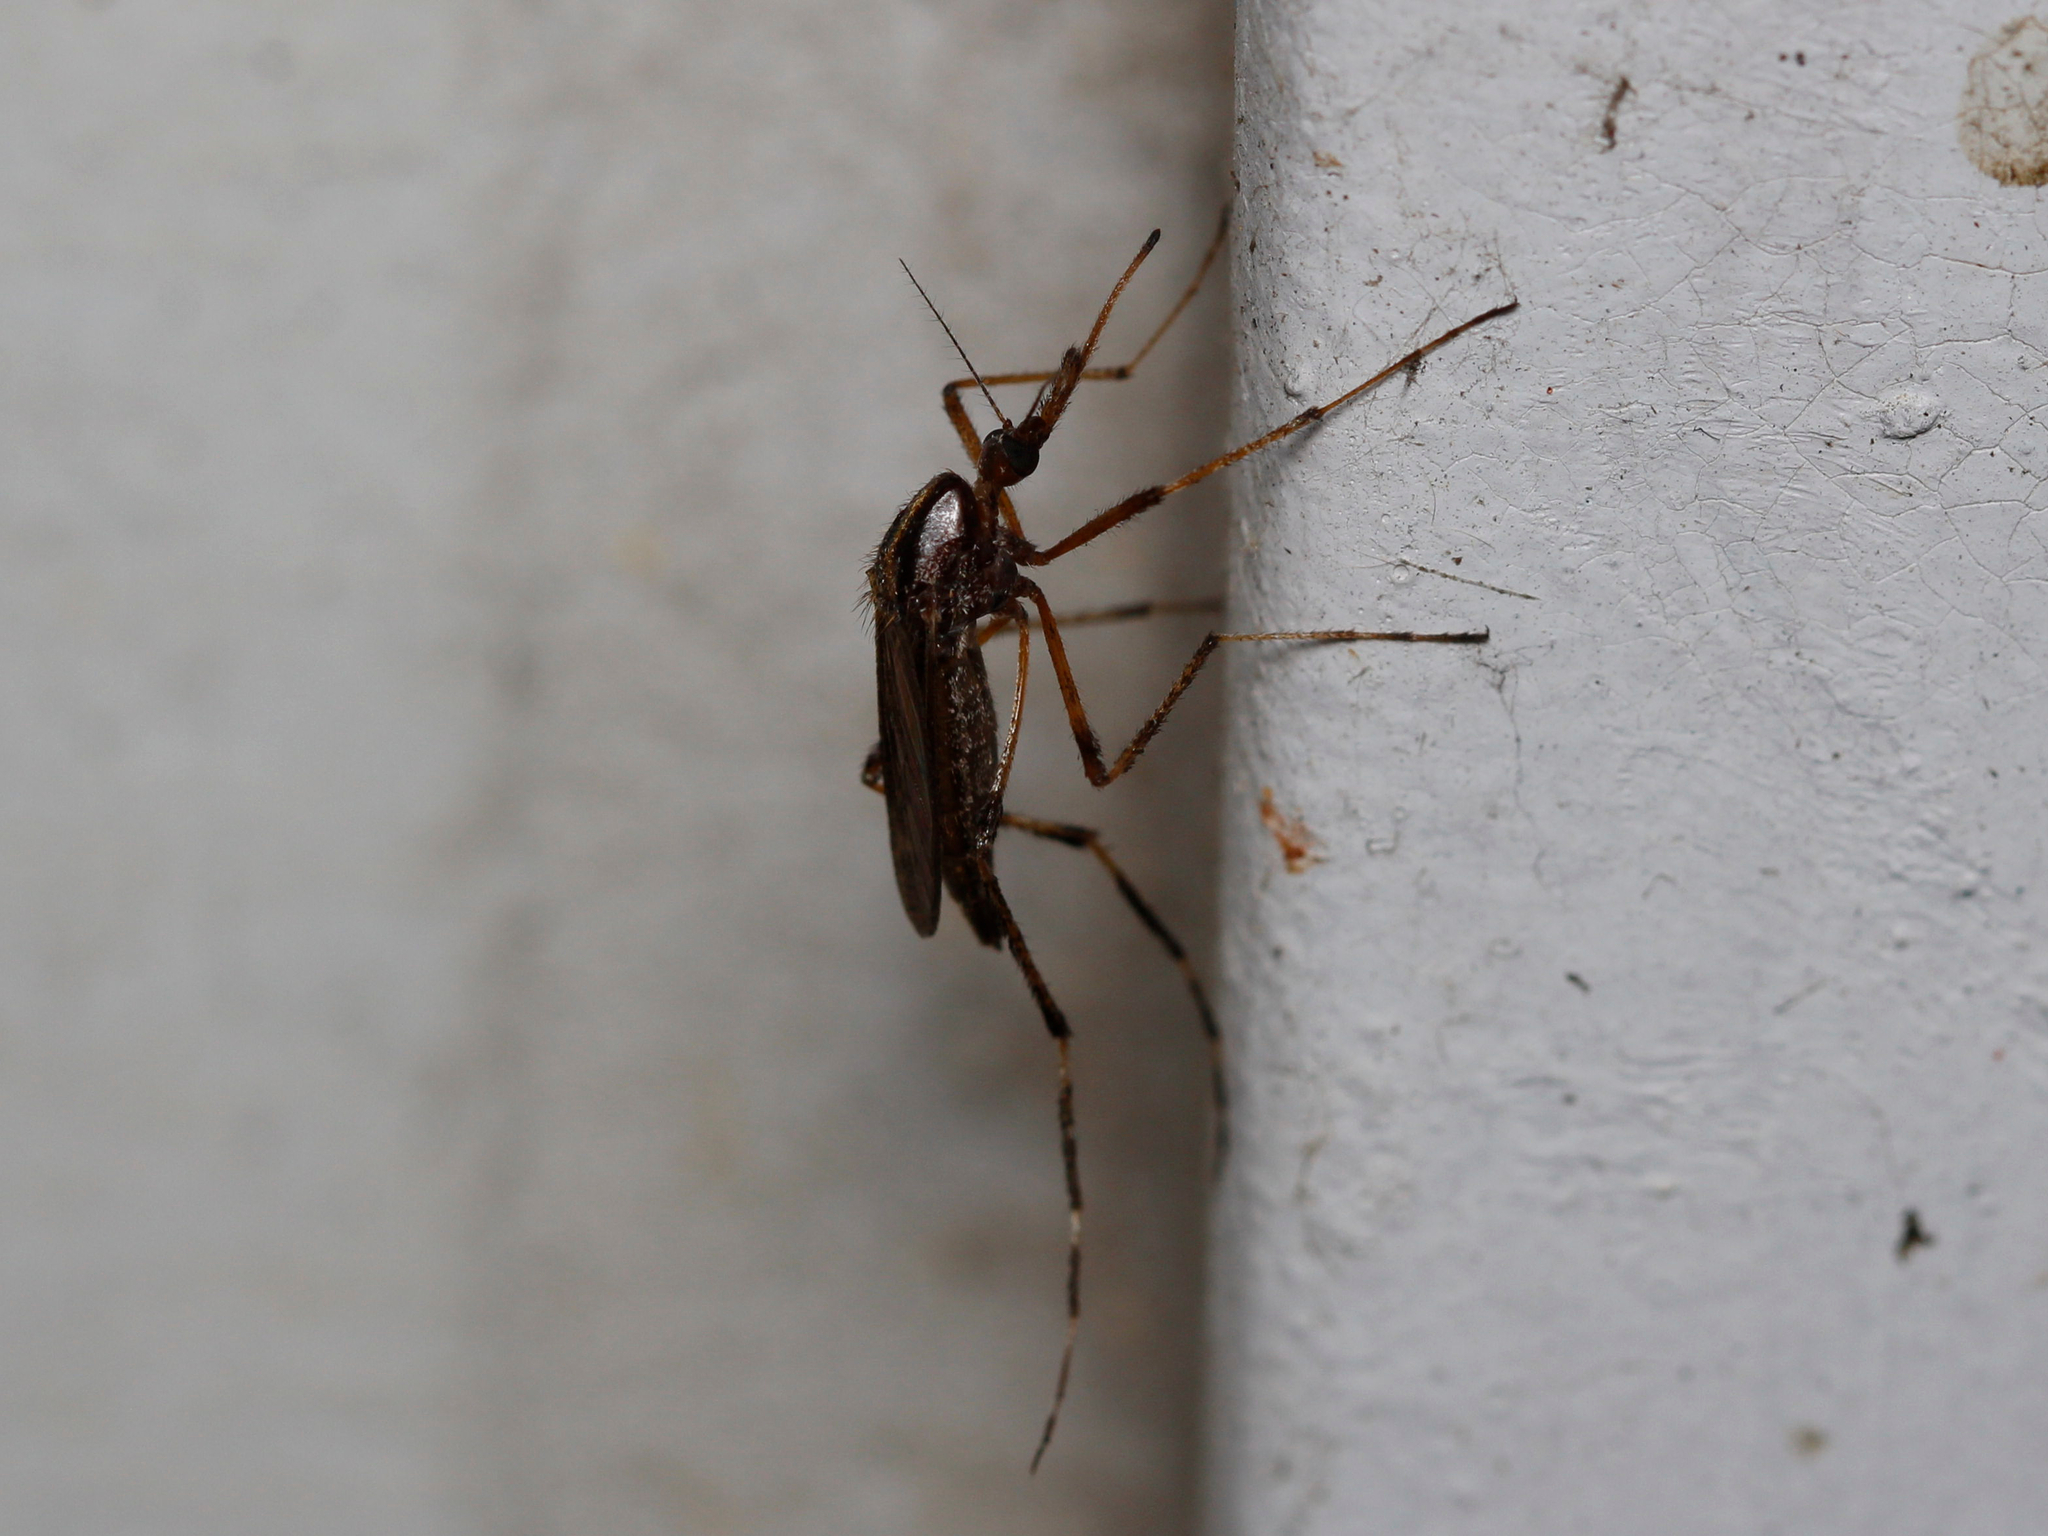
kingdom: Animalia
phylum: Arthropoda
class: Insecta
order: Diptera
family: Culicidae
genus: Psorophora
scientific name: Psorophora ciliata
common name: Gallinipper
